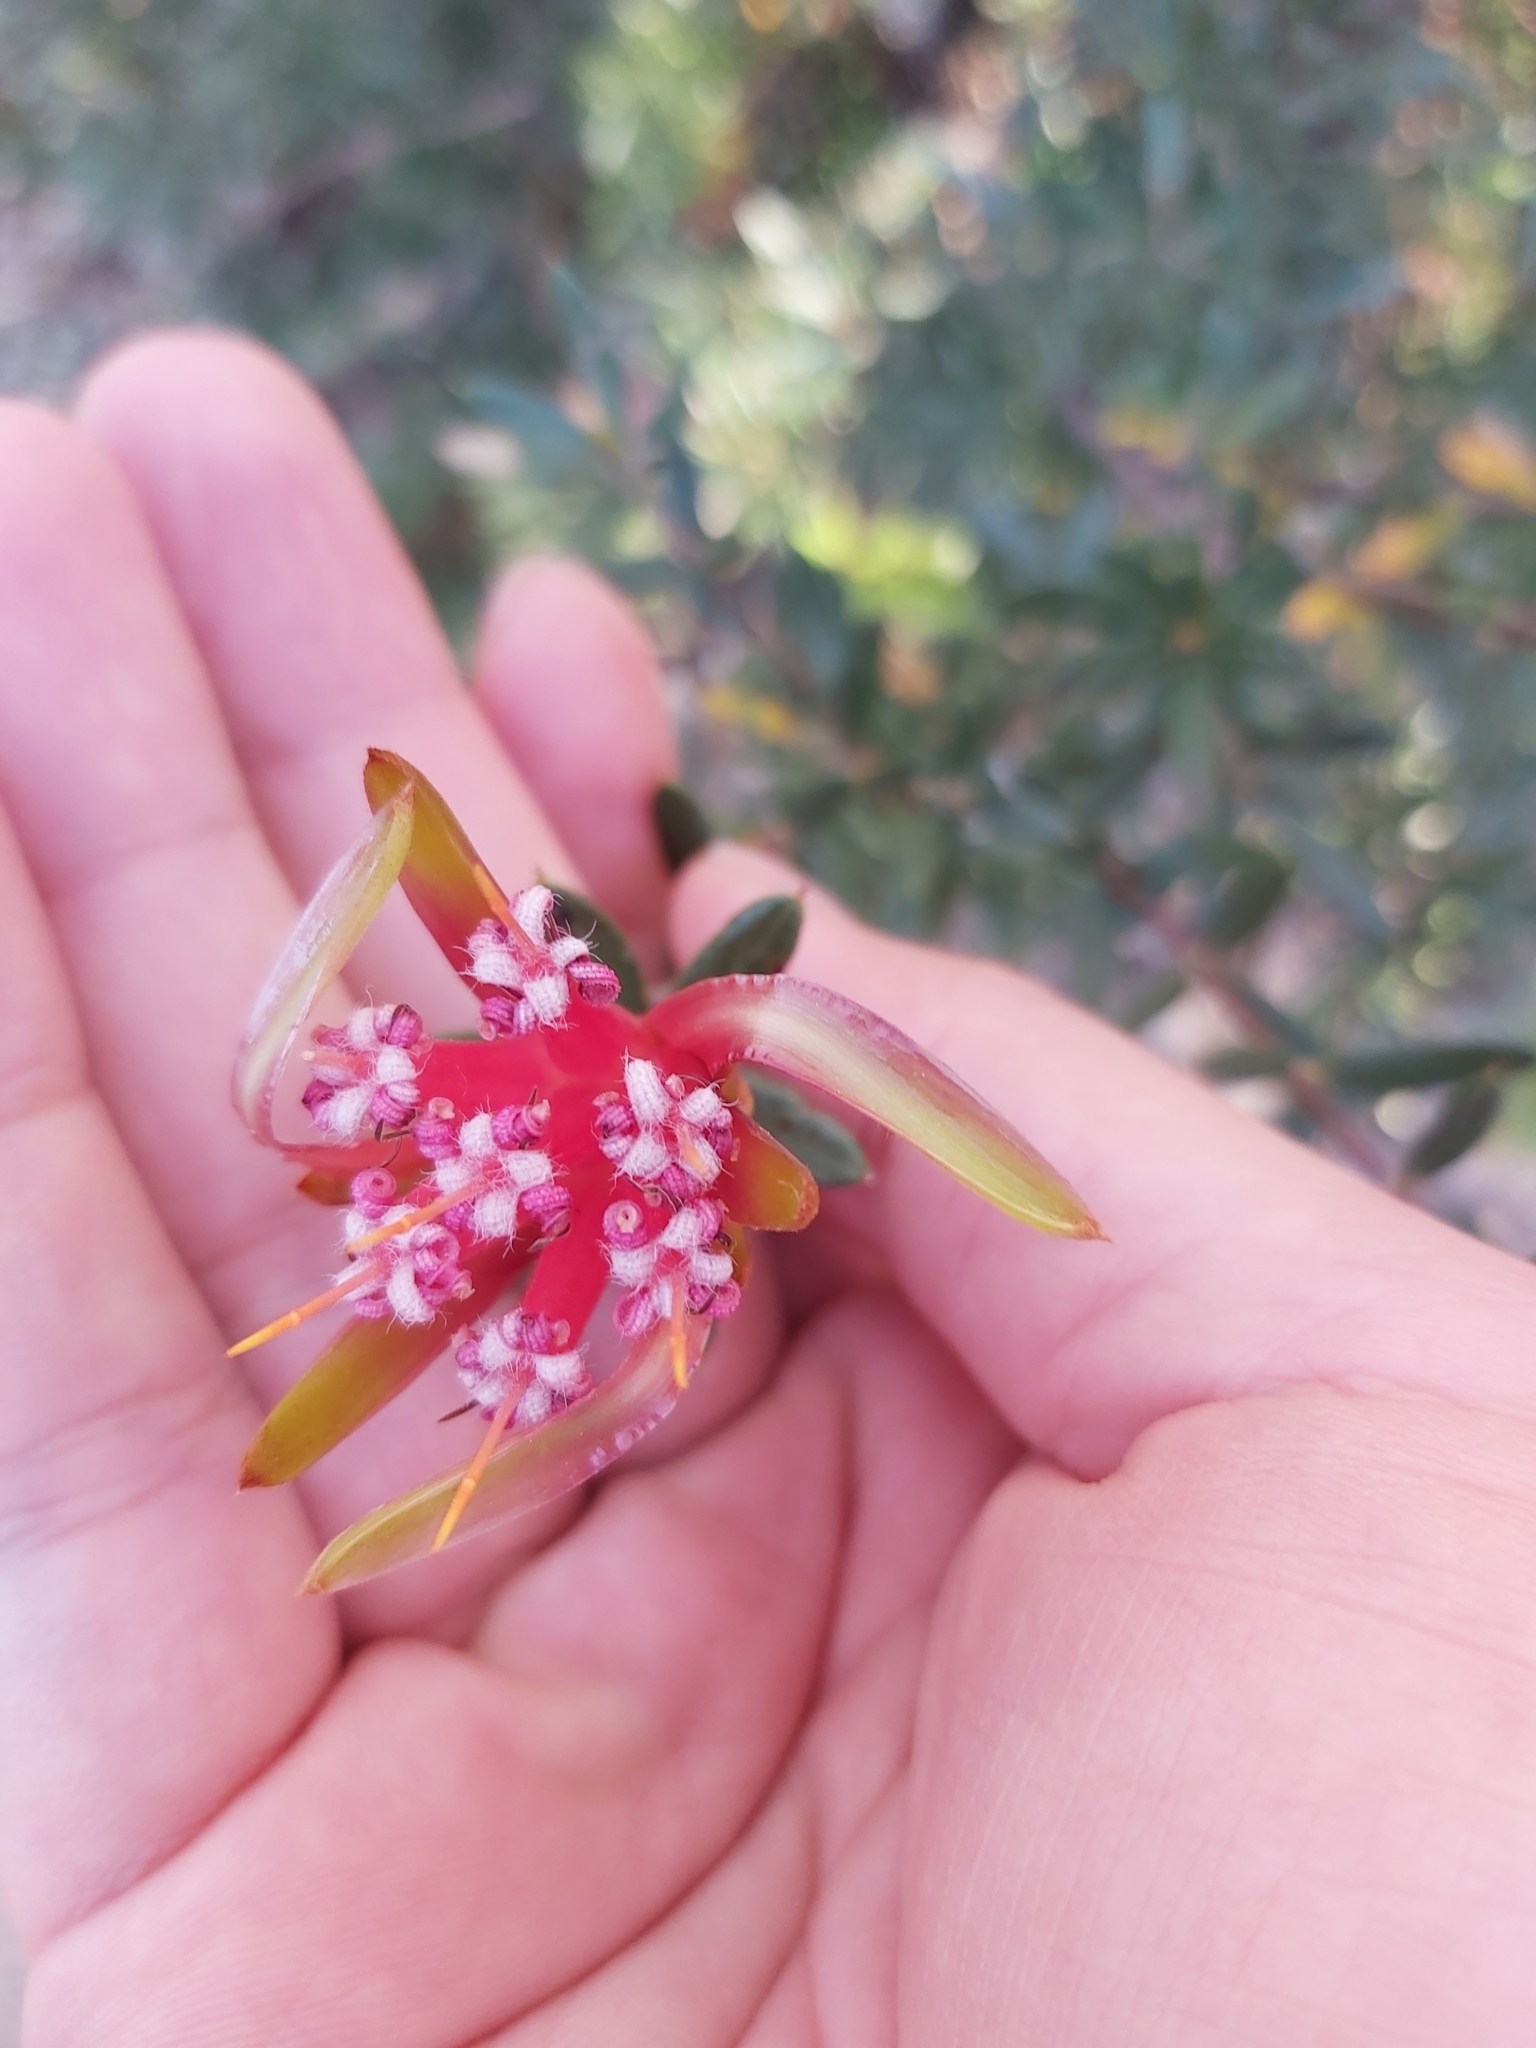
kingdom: Plantae
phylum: Tracheophyta
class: Magnoliopsida
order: Proteales
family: Proteaceae
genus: Lambertia
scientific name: Lambertia formosa
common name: Mountain-devil
